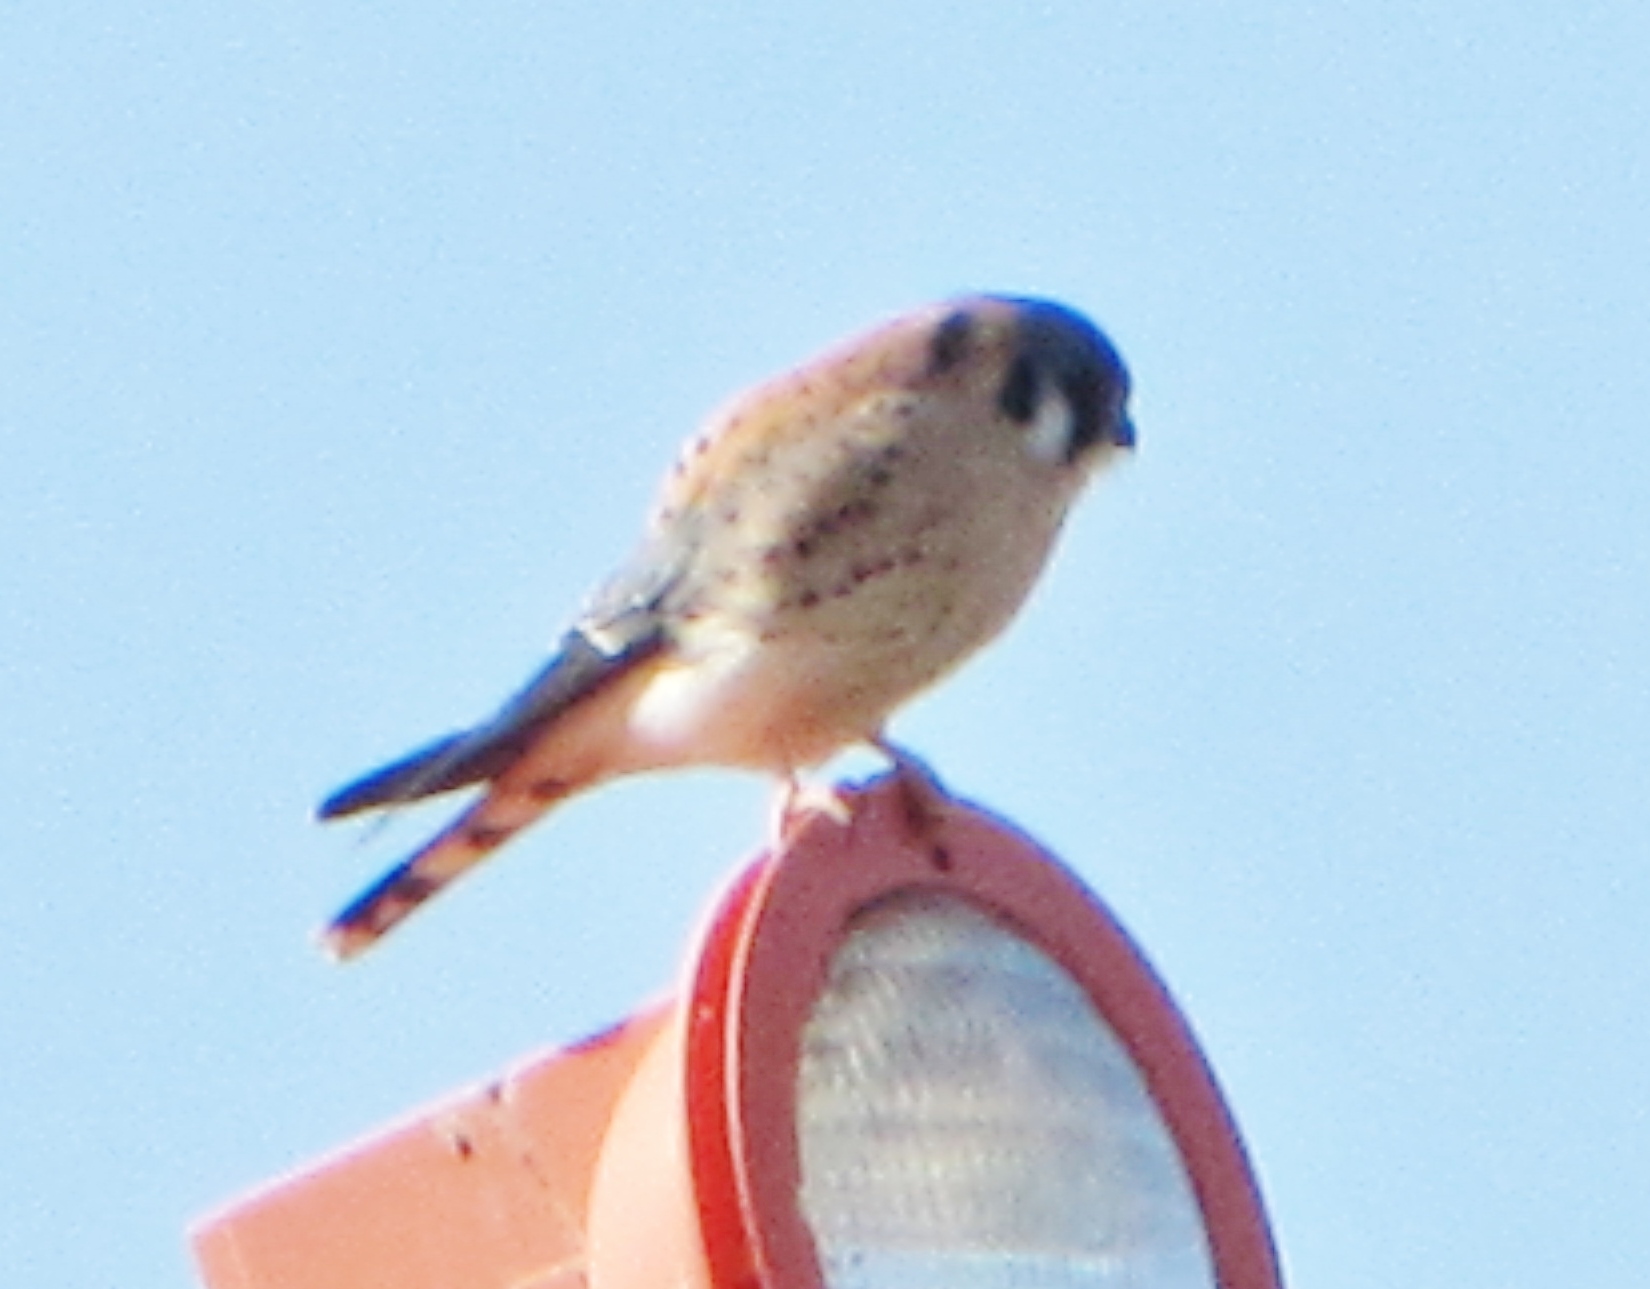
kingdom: Animalia
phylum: Chordata
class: Aves
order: Falconiformes
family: Falconidae
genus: Falco
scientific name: Falco sparverius
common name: American kestrel
